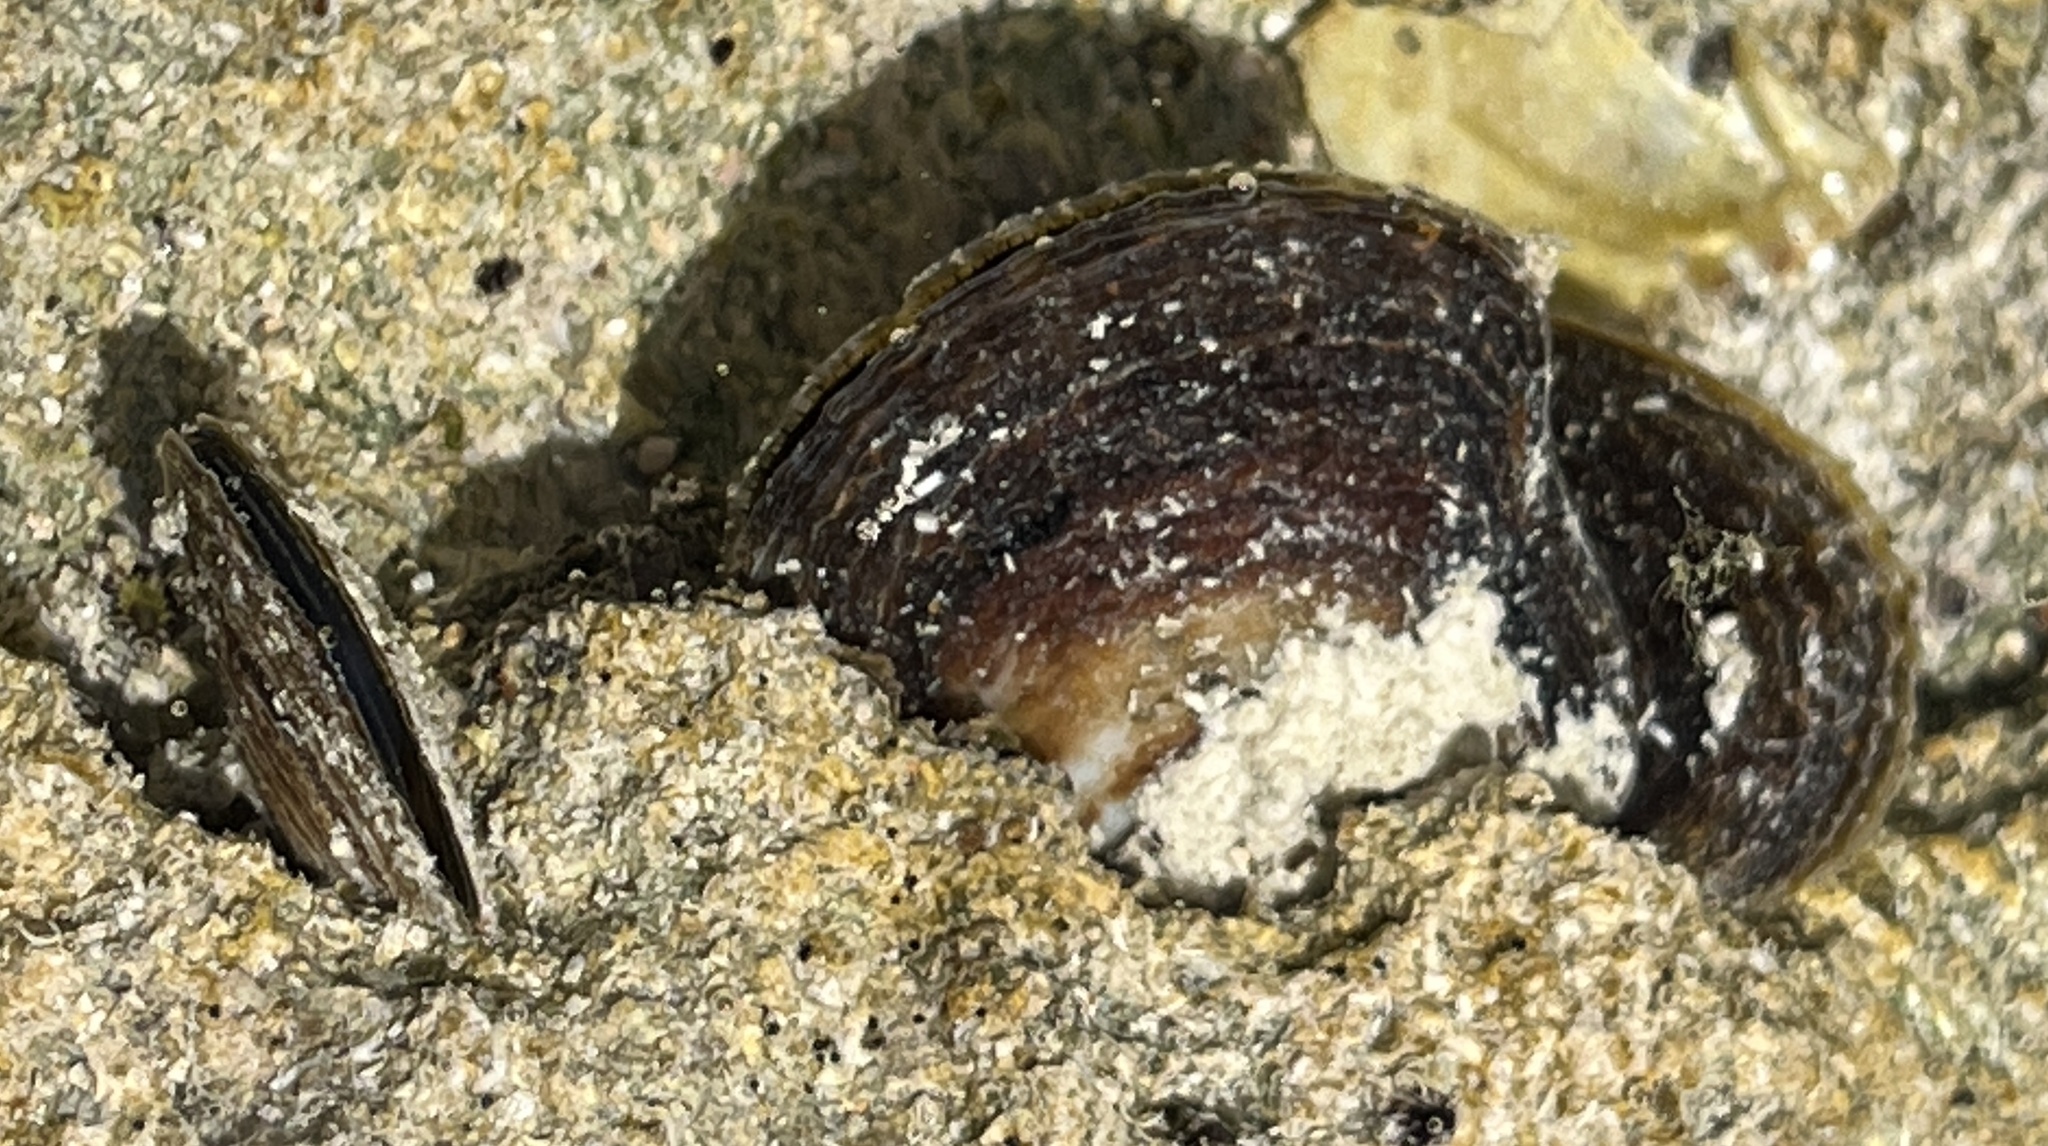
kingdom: Animalia
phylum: Mollusca
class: Bivalvia
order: Ostreida
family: Isognomonidae
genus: Isognomon
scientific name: Isognomon alatus
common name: Flat tree-oyster
